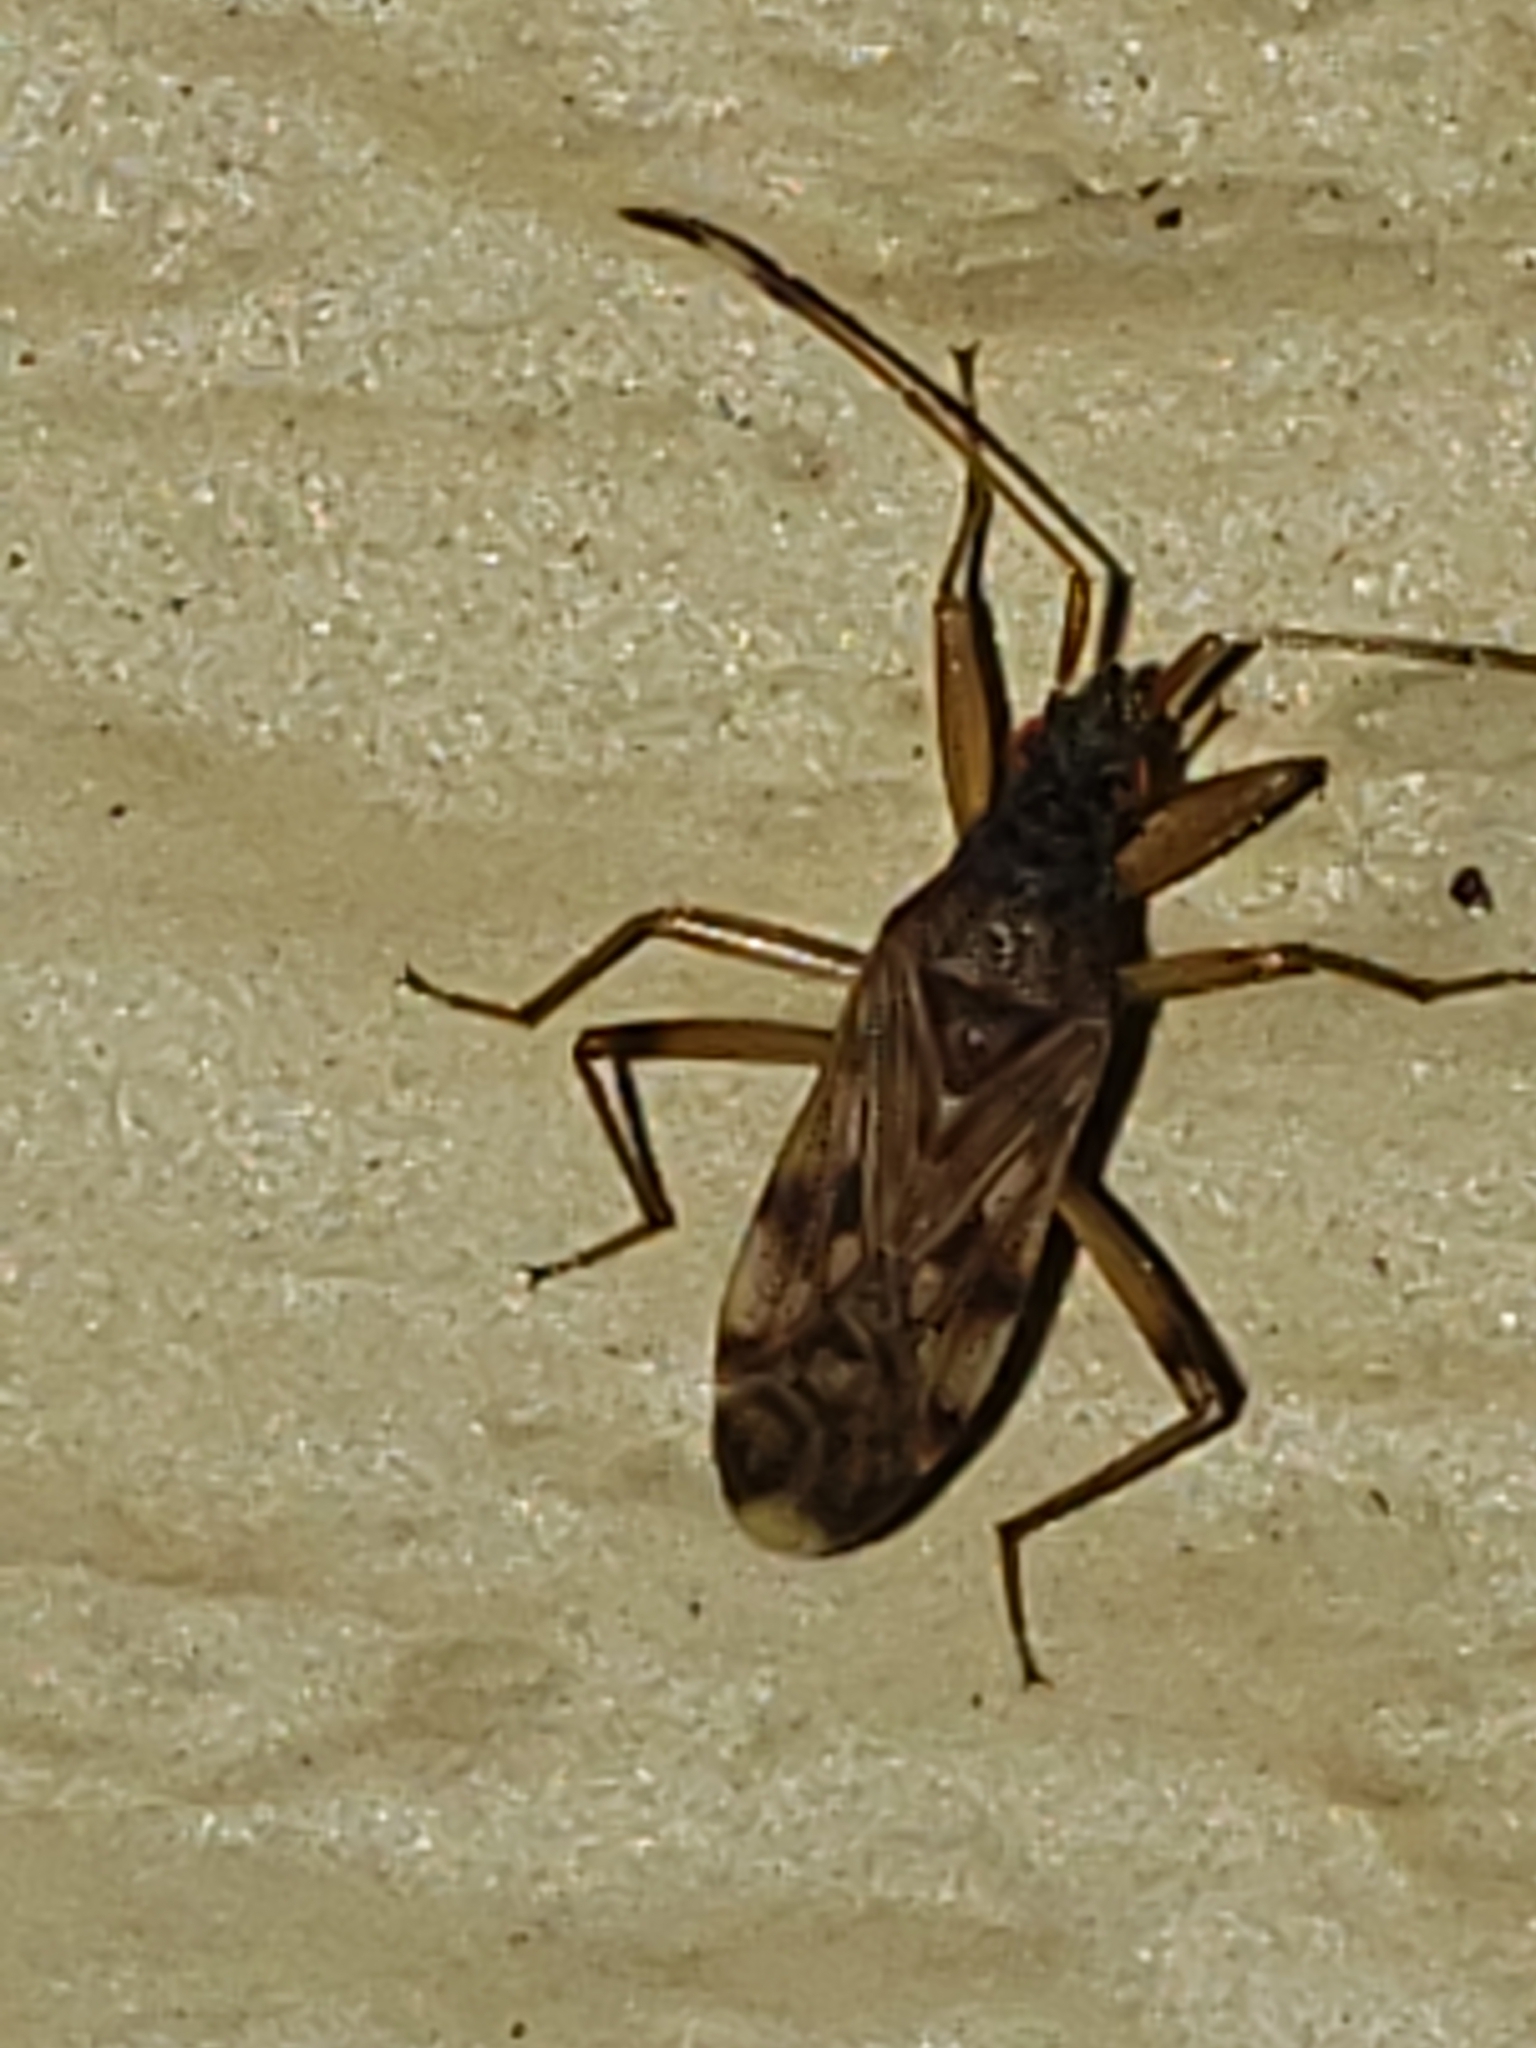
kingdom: Animalia
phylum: Arthropoda
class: Insecta
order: Hemiptera
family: Rhyparochromidae
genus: Ozophora
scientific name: Ozophora picturata
